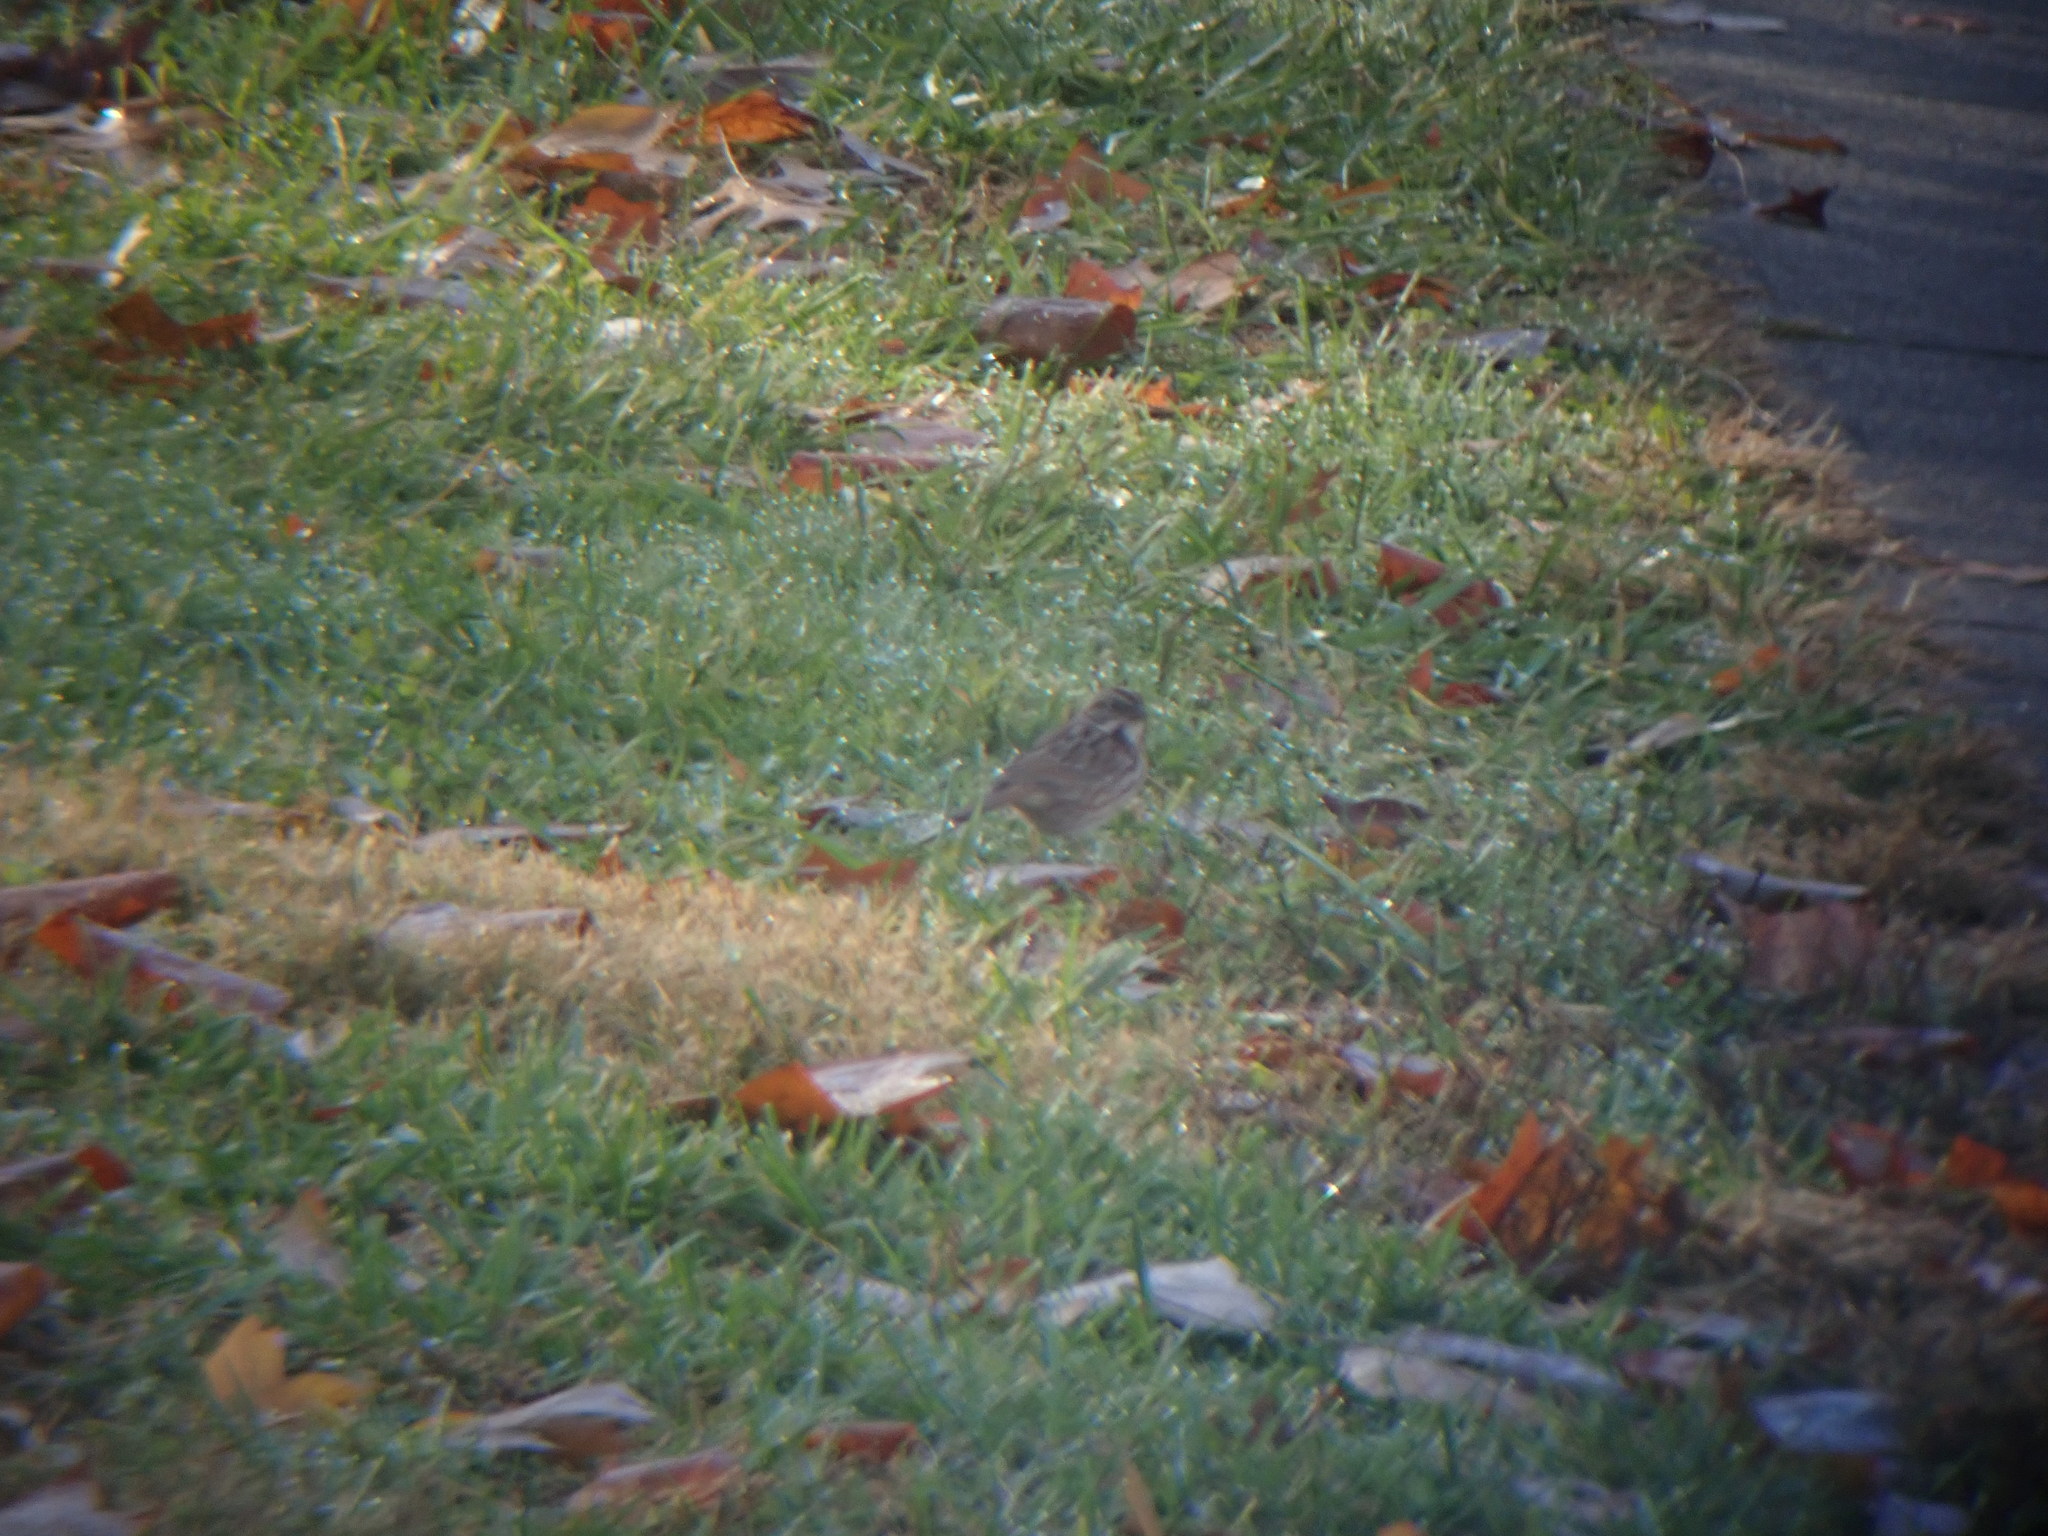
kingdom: Animalia
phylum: Chordata
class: Aves
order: Passeriformes
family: Passerellidae
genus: Melospiza
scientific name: Melospiza melodia
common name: Song sparrow
